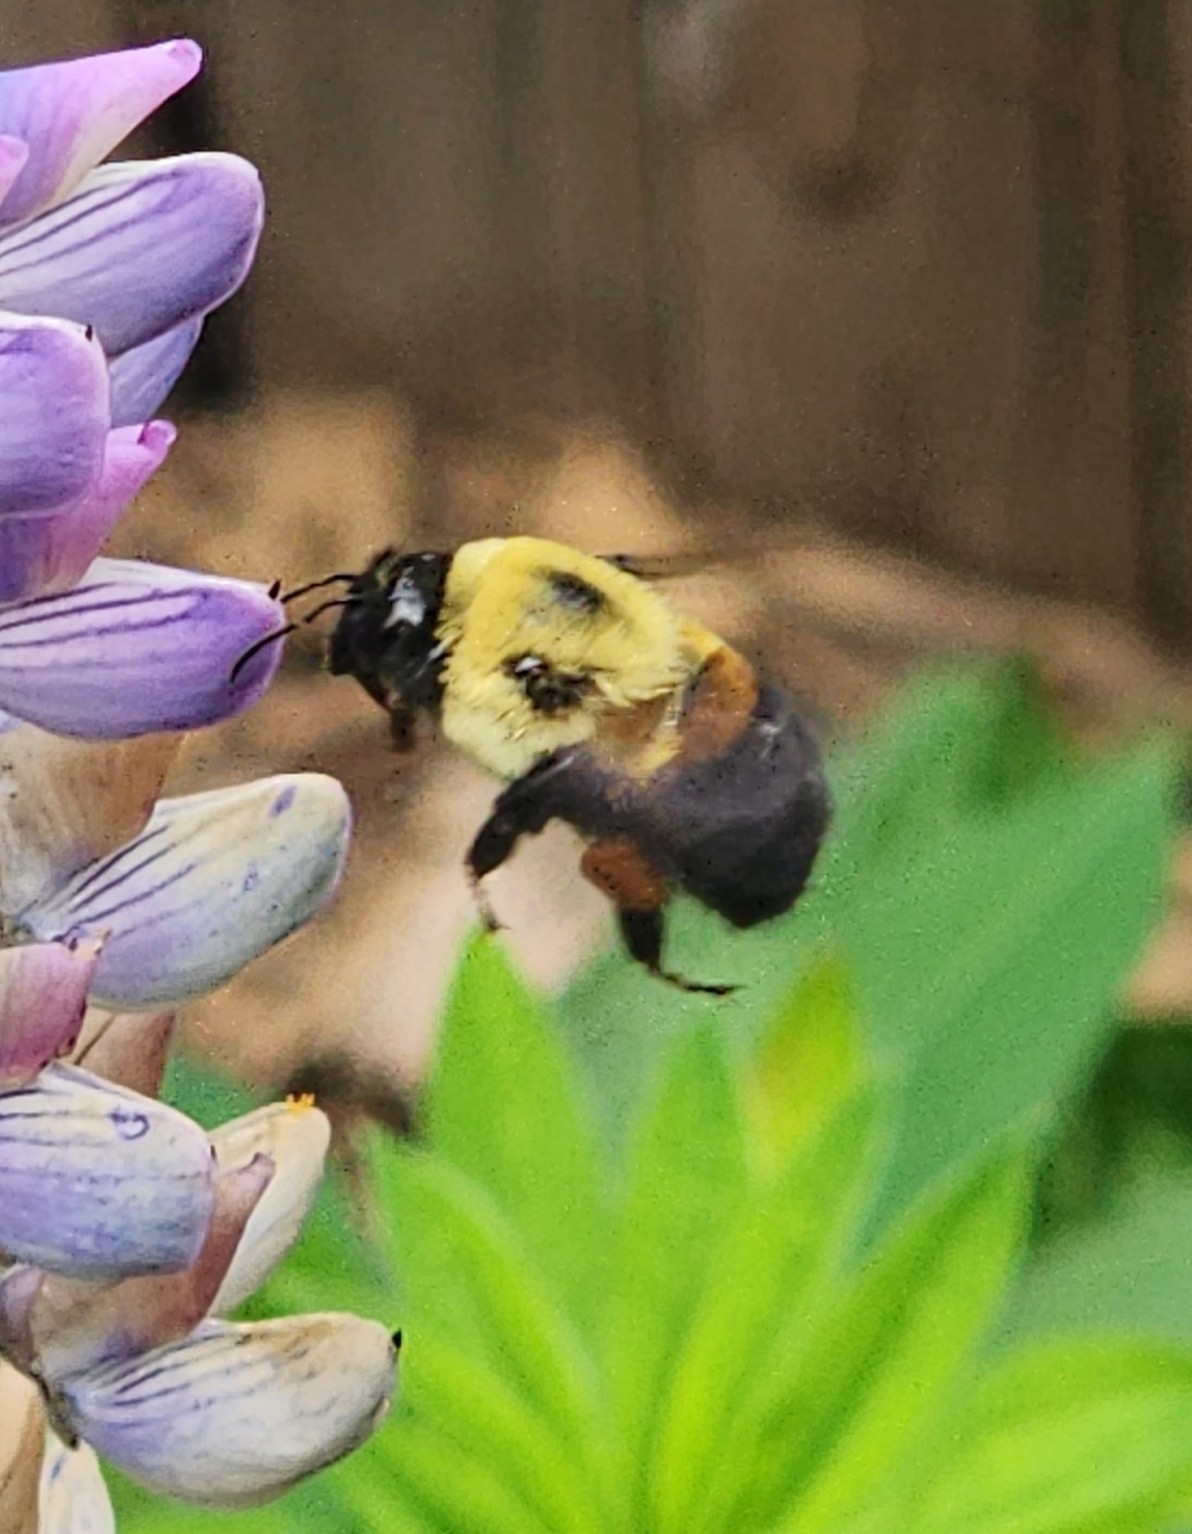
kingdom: Animalia
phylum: Arthropoda
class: Insecta
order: Hymenoptera
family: Apidae
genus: Bombus
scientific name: Bombus griseocollis
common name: Brown-belted bumble bee
